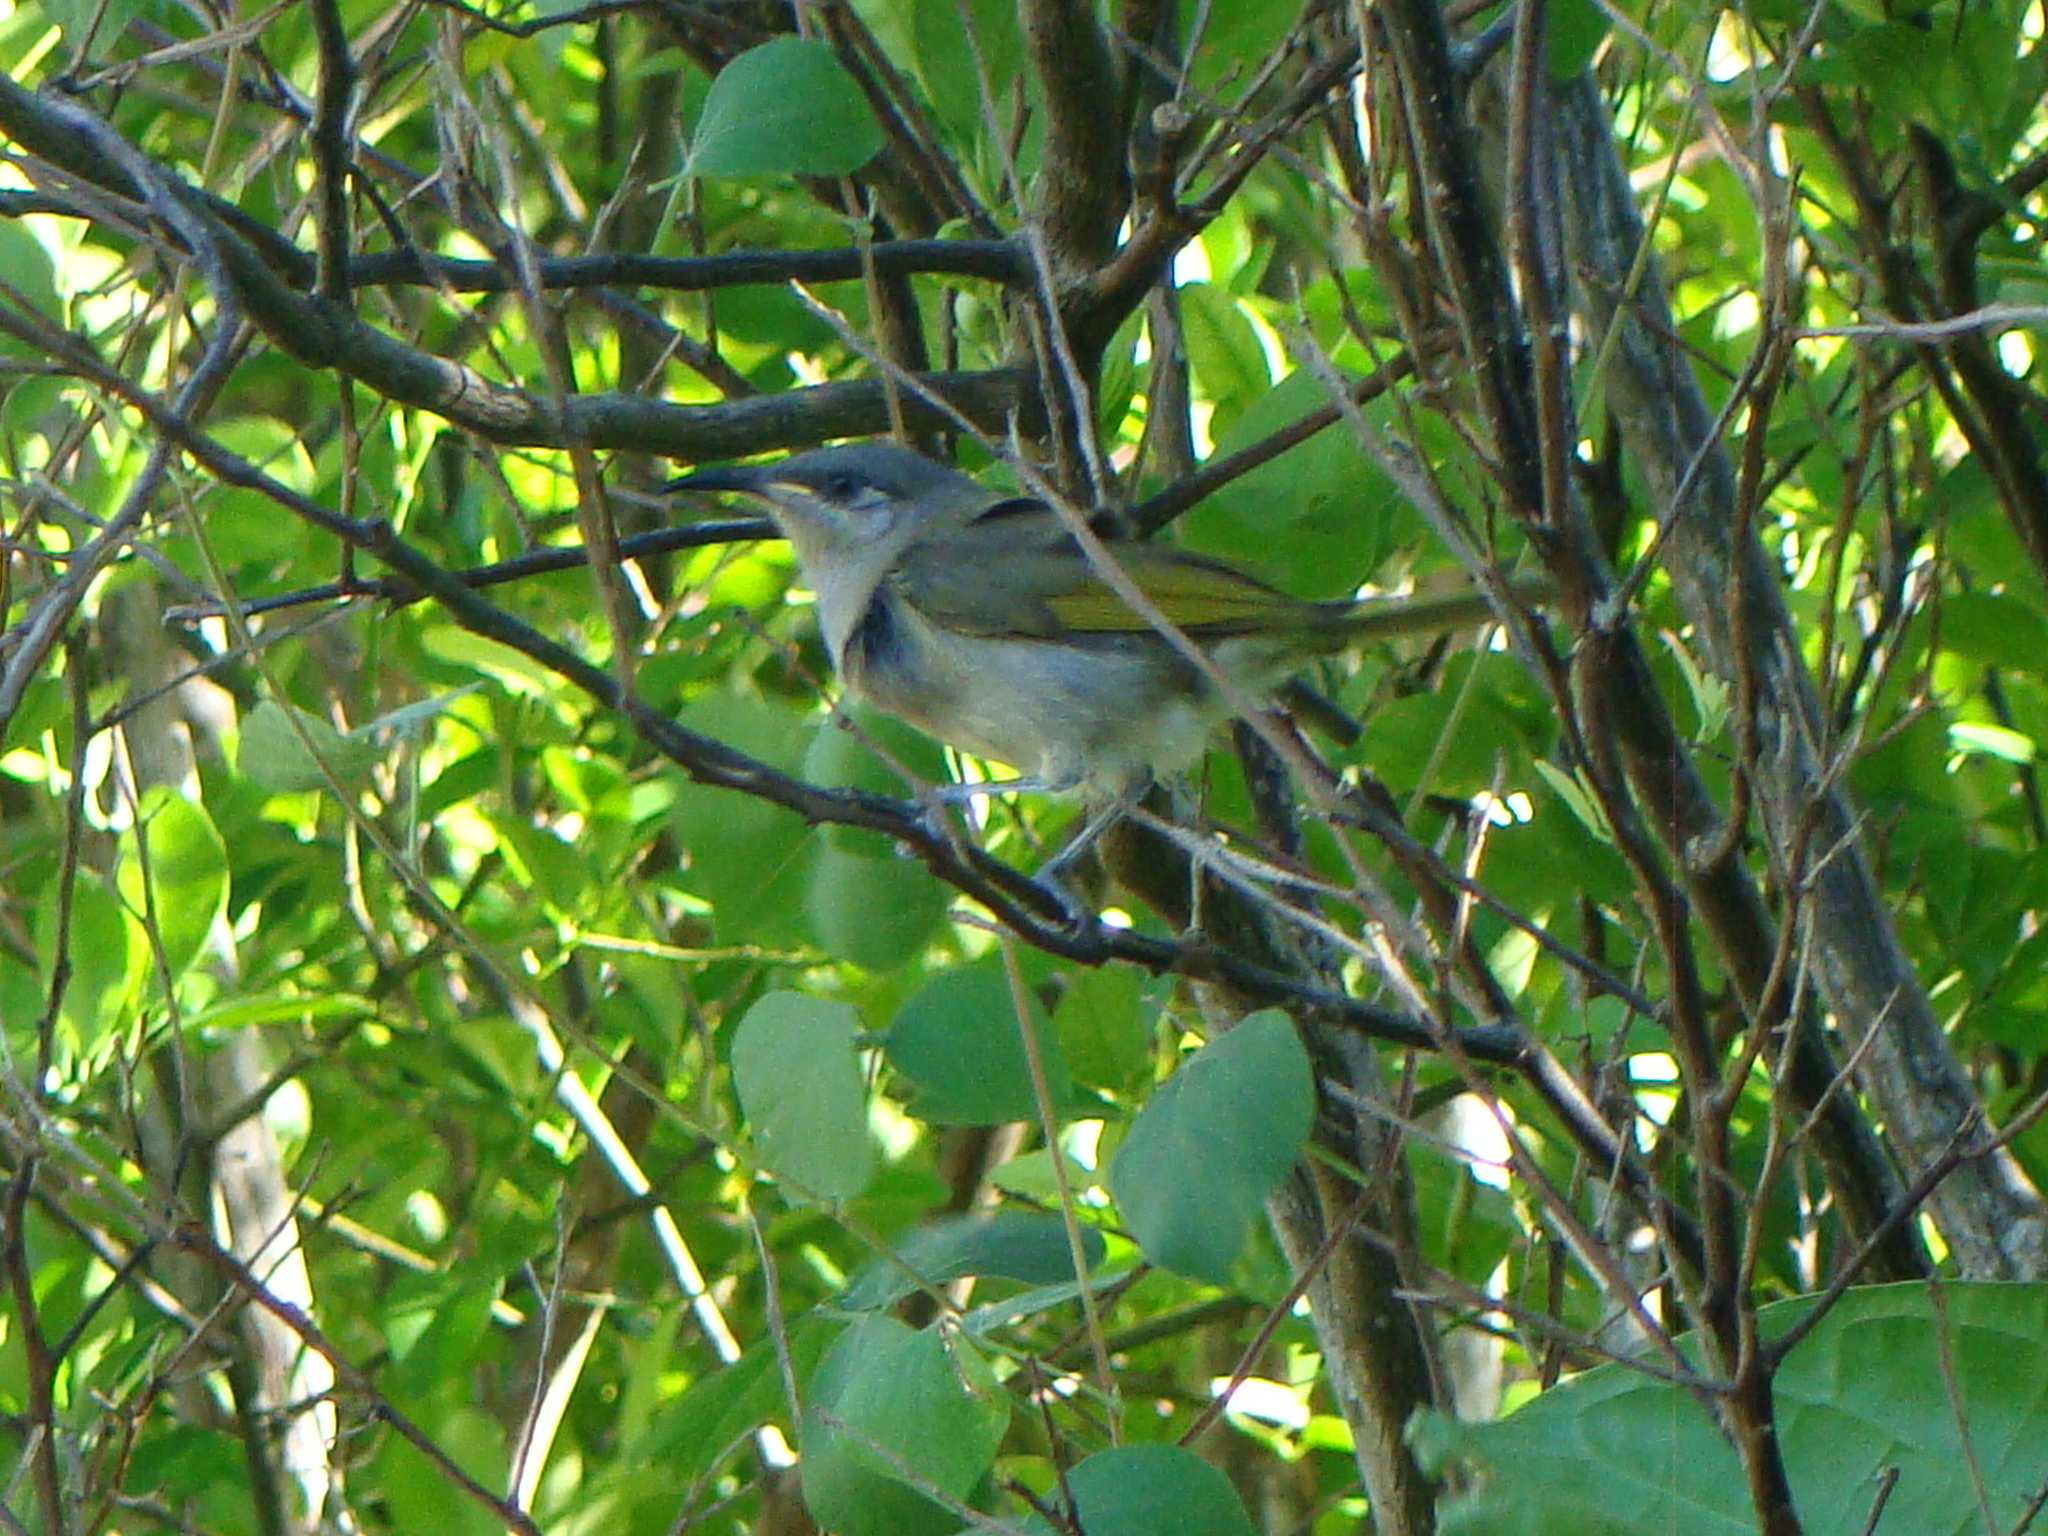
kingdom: Animalia
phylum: Chordata
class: Aves
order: Passeriformes
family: Meliphagidae
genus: Lichmera
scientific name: Lichmera incana
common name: Grey-eared honeyeater
